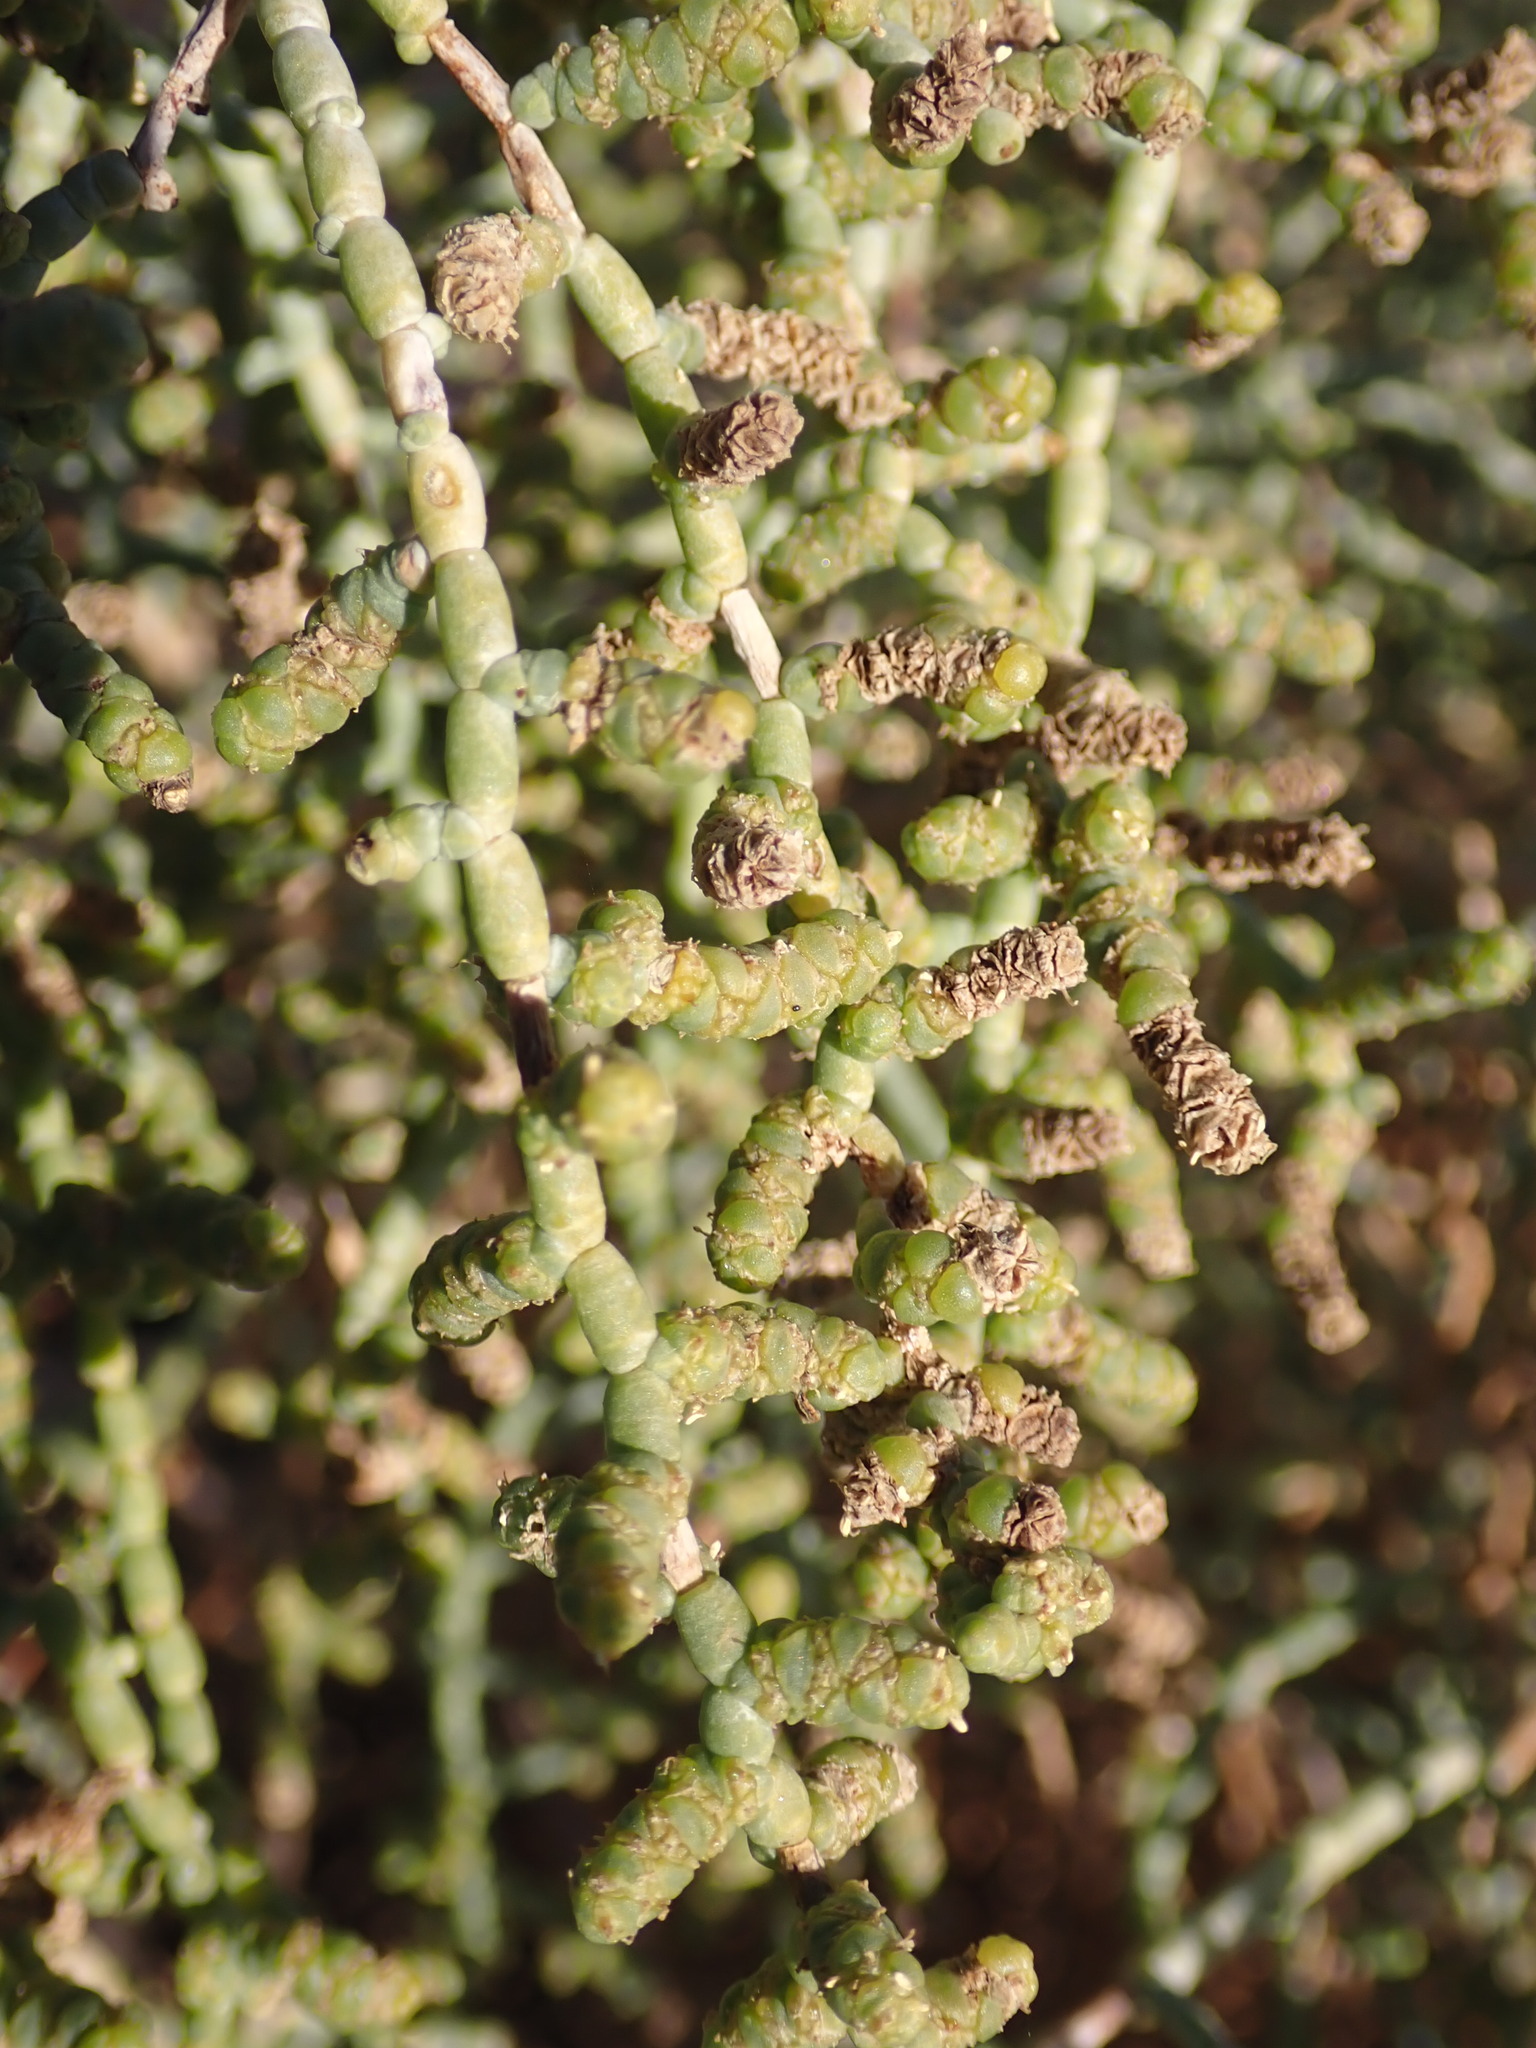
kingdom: Plantae
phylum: Tracheophyta
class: Magnoliopsida
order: Caryophyllales
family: Amaranthaceae
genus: Allenrolfea
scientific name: Allenrolfea occidentalis
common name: Iodine-bush
